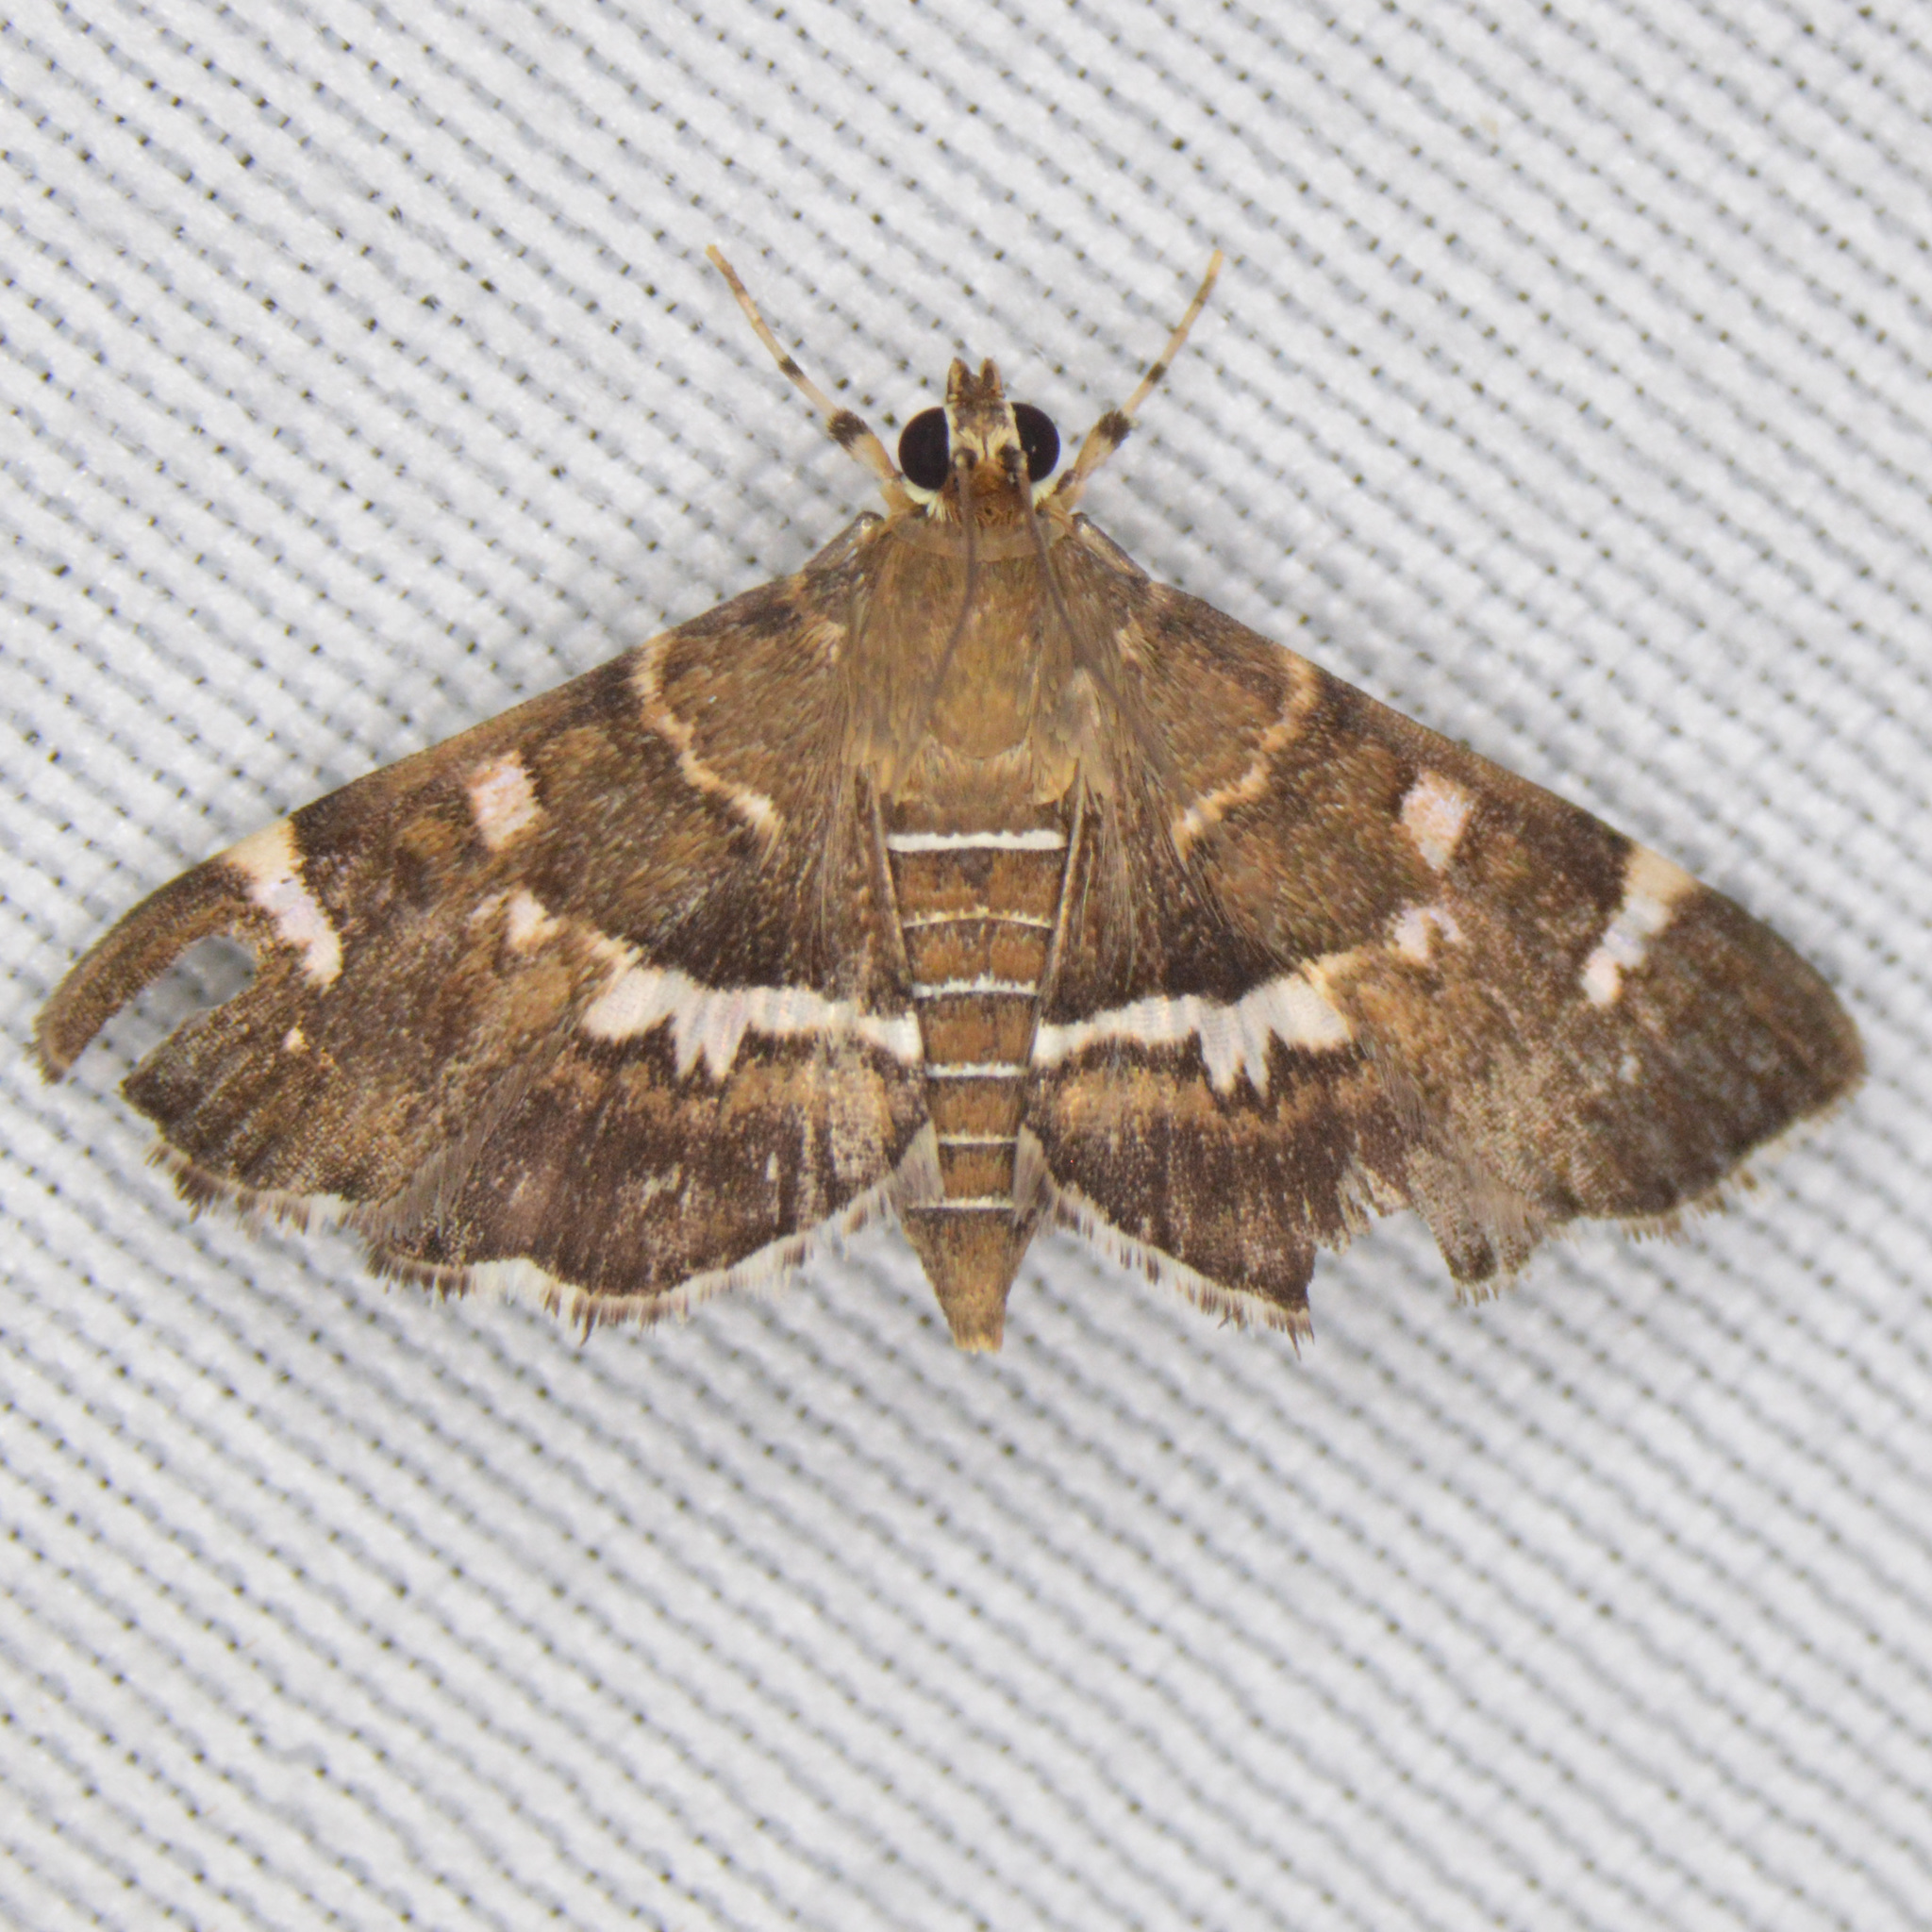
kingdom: Animalia
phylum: Arthropoda
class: Insecta
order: Lepidoptera
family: Crambidae
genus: Hymenia
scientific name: Hymenia perspectalis
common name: Spotted beet webworm
